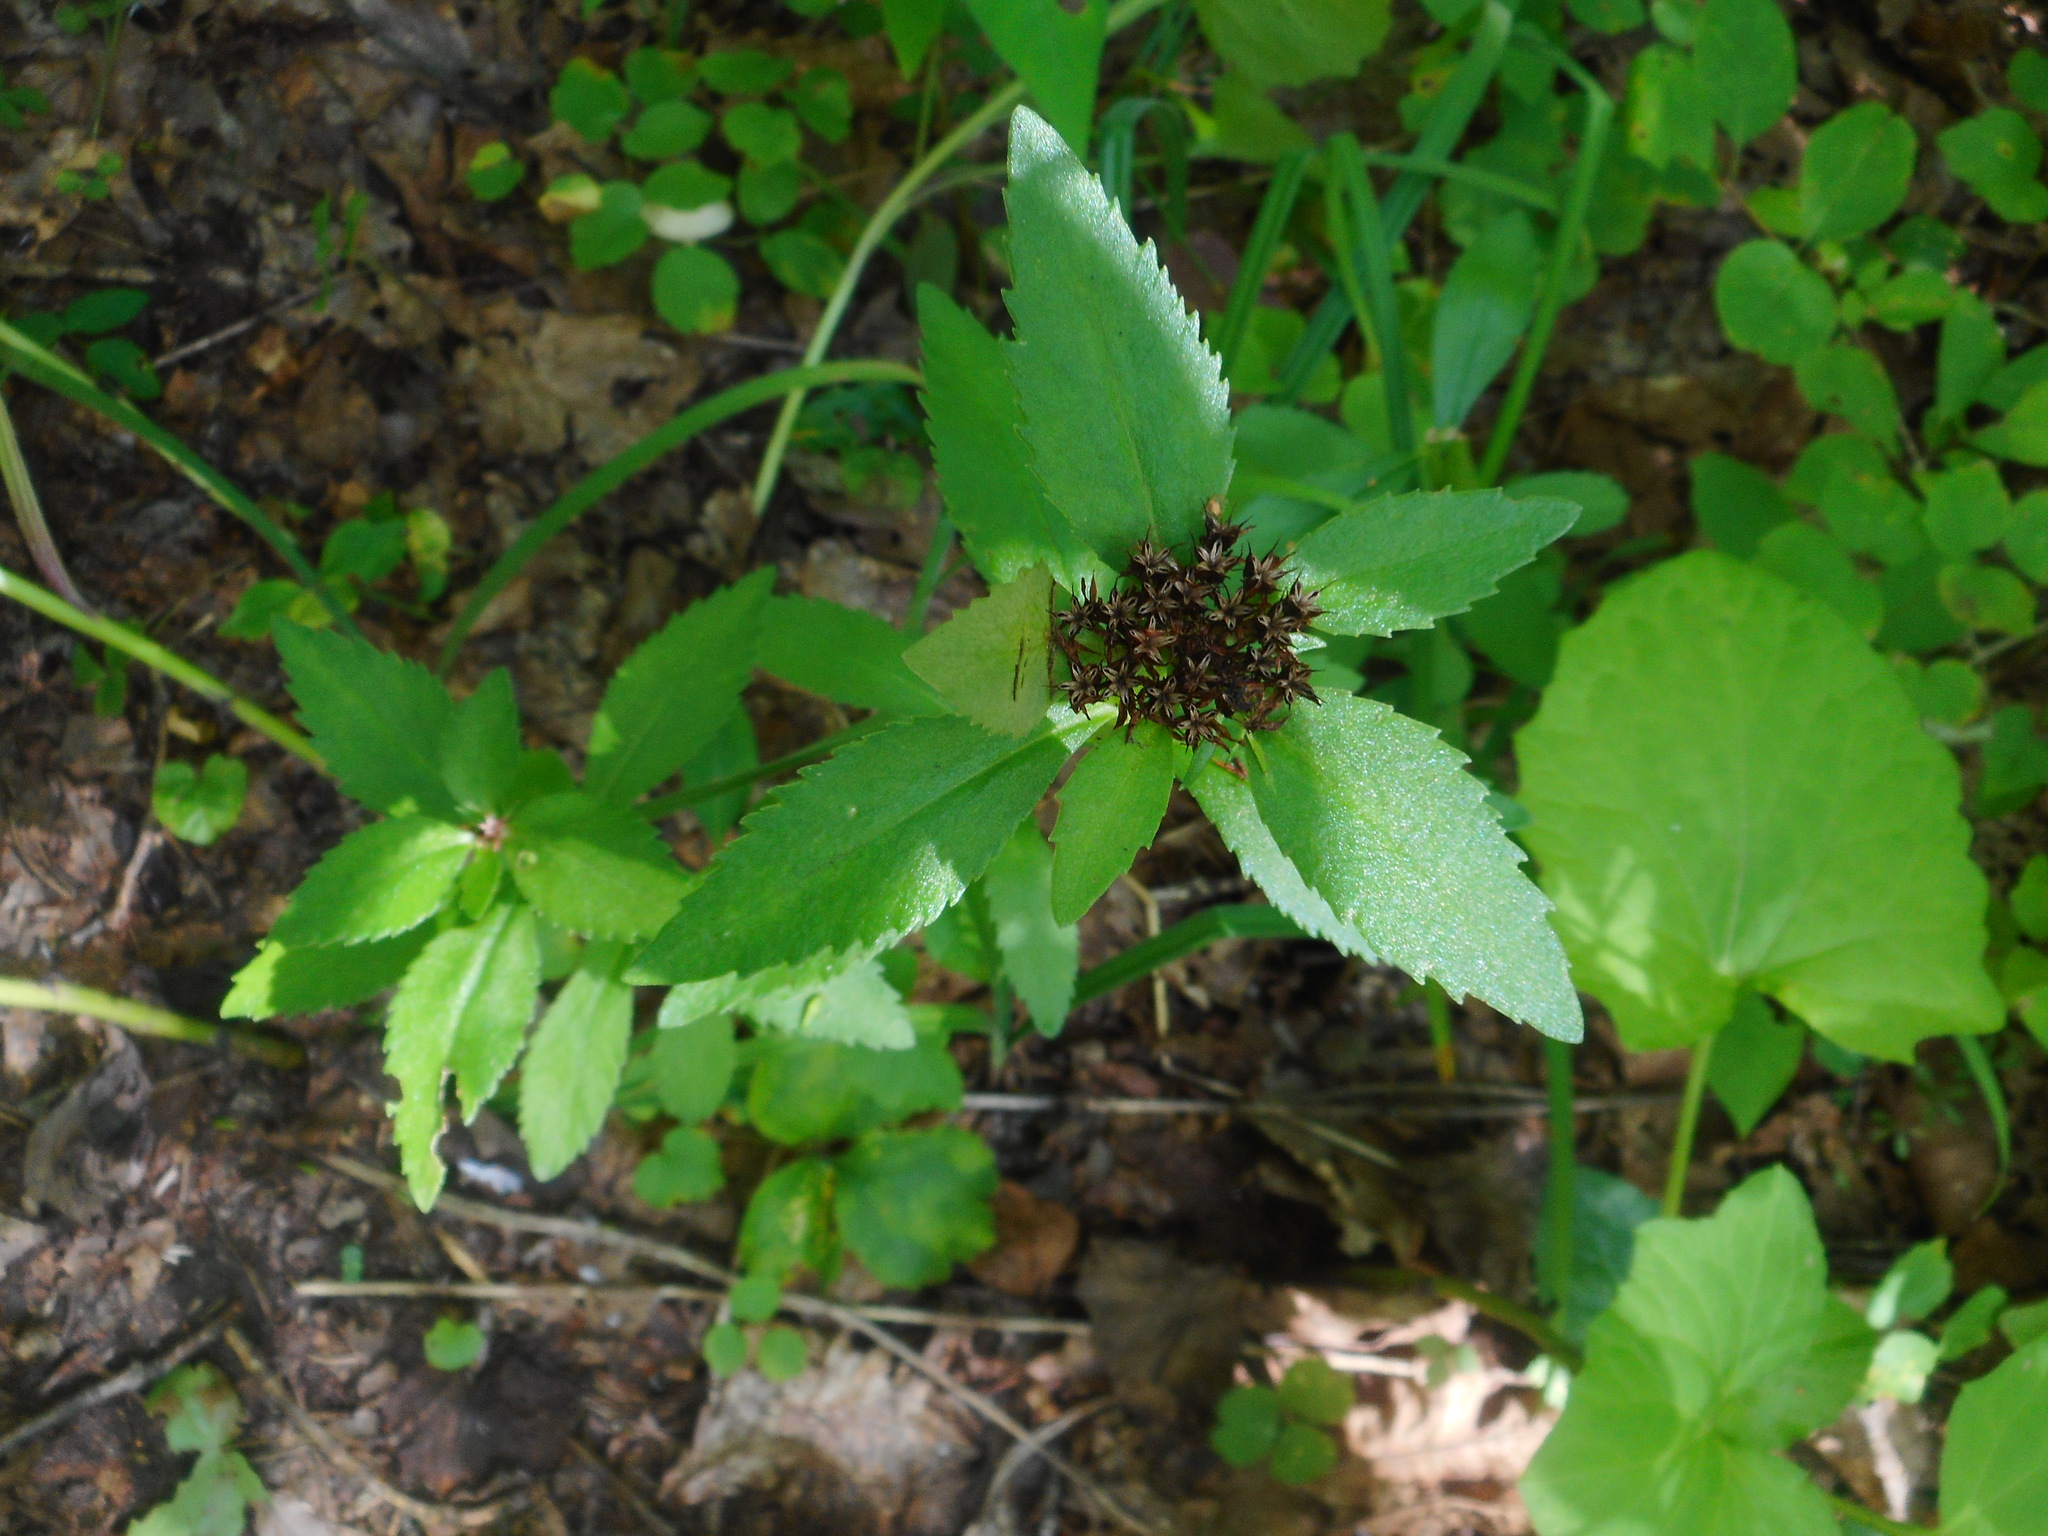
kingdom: Plantae
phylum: Tracheophyta
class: Magnoliopsida
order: Saxifragales
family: Crassulaceae
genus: Phedimus
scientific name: Phedimus aizoon
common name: Orpin aizoon
